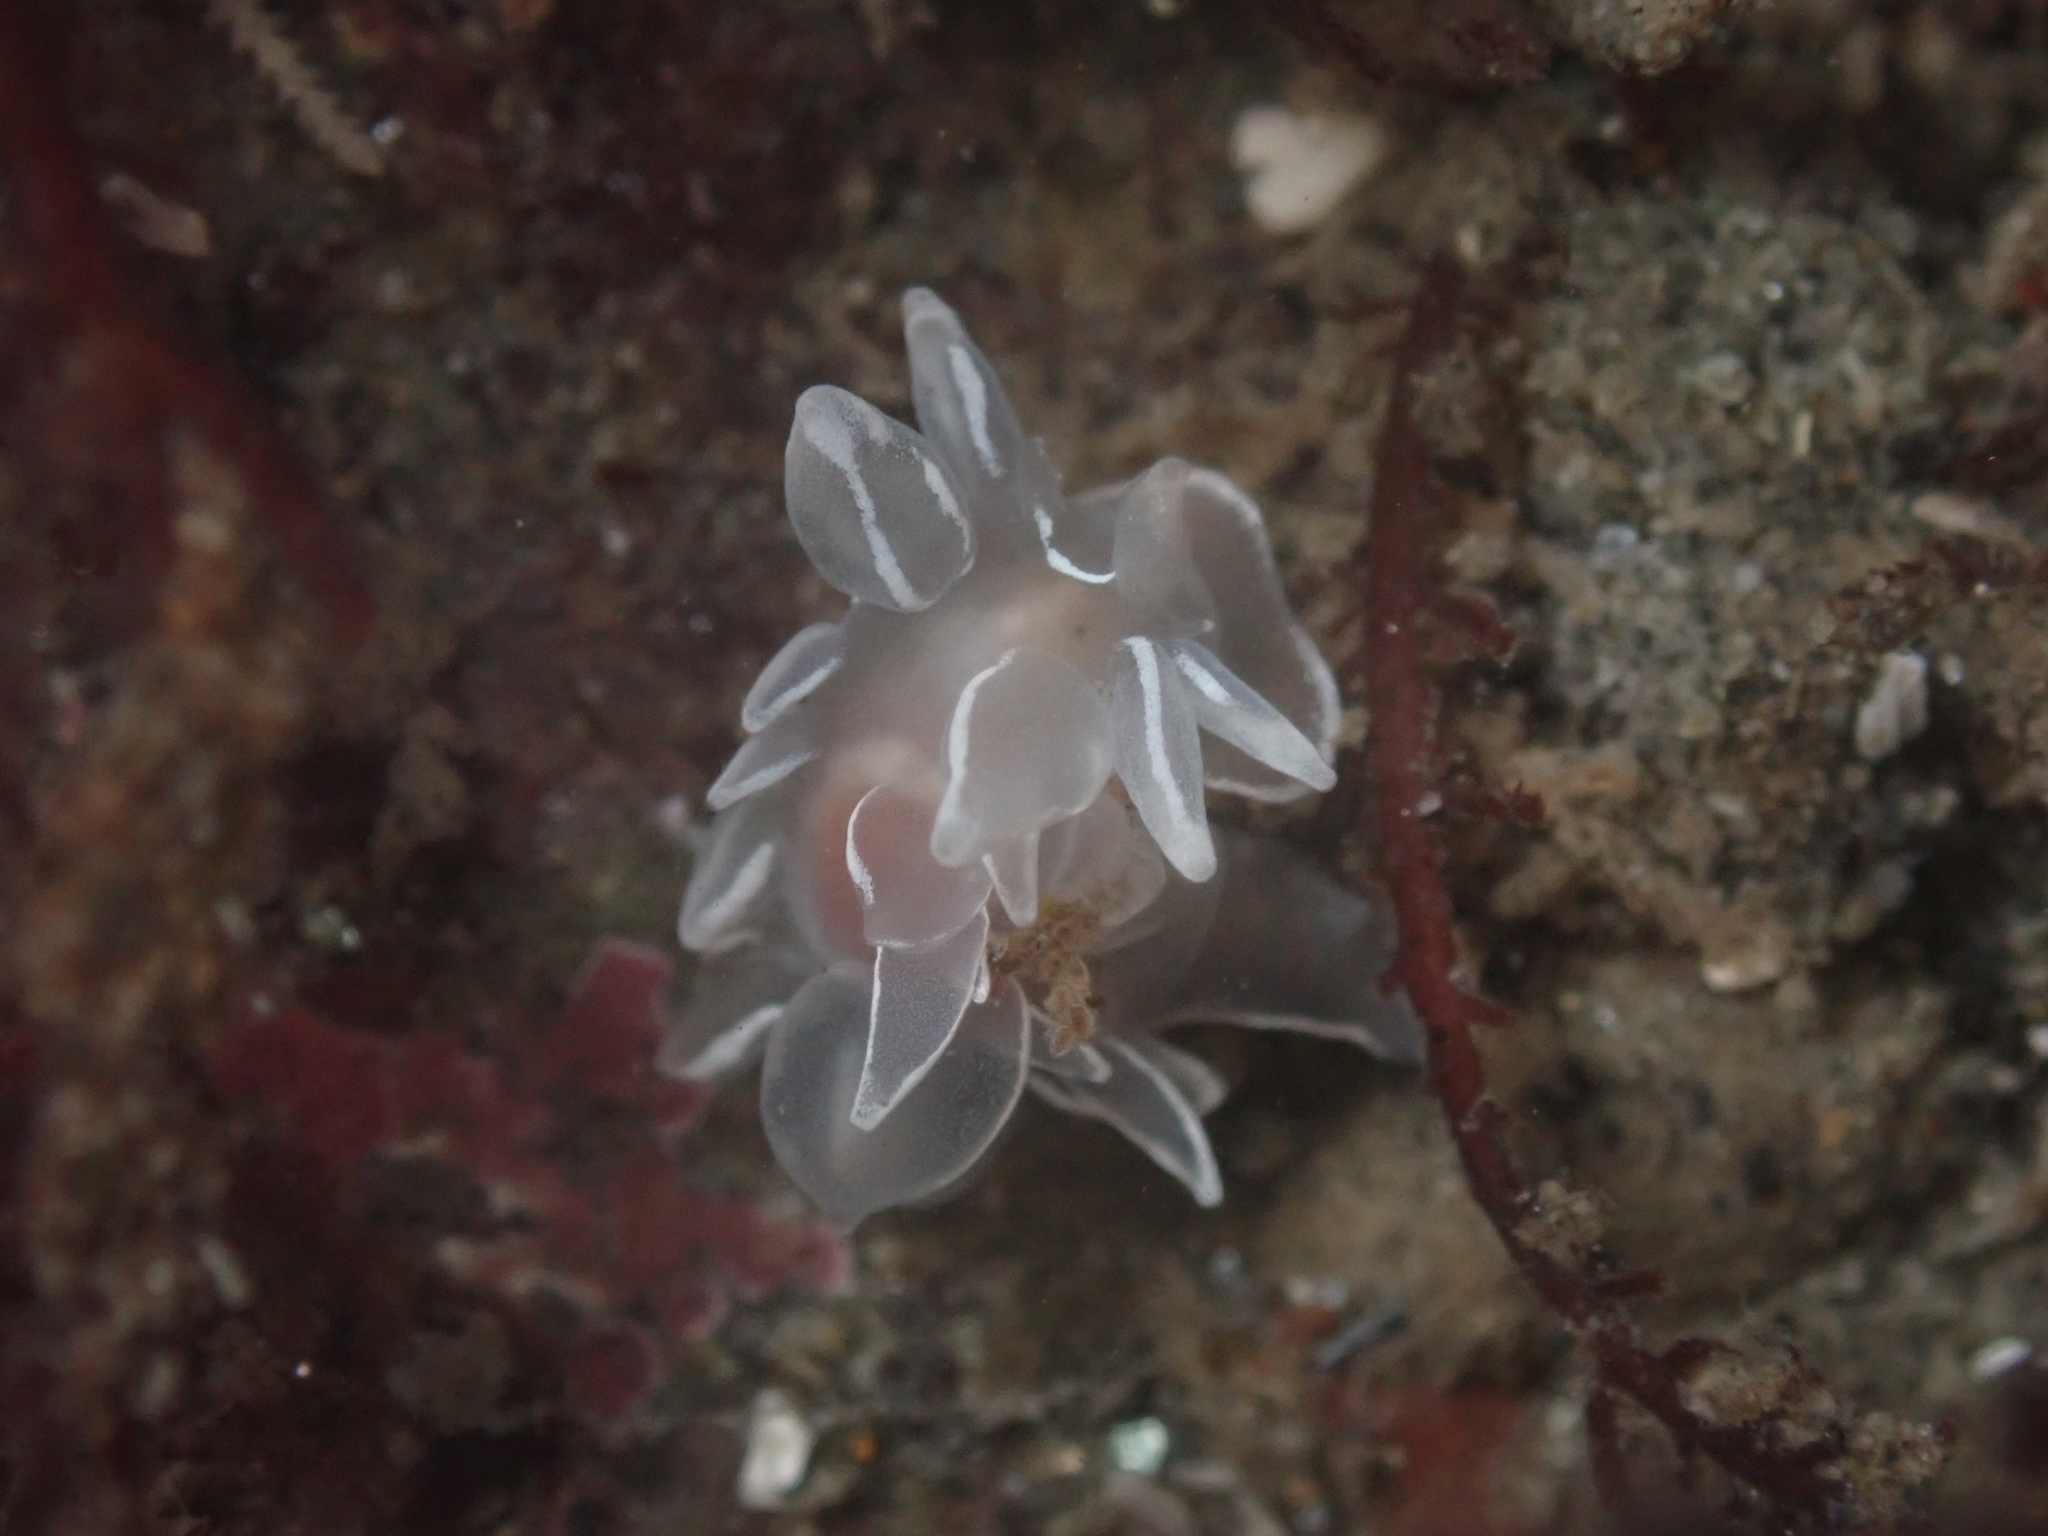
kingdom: Animalia
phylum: Mollusca
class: Gastropoda
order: Nudibranchia
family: Dironidae
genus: Dirona
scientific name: Dirona albolineata
